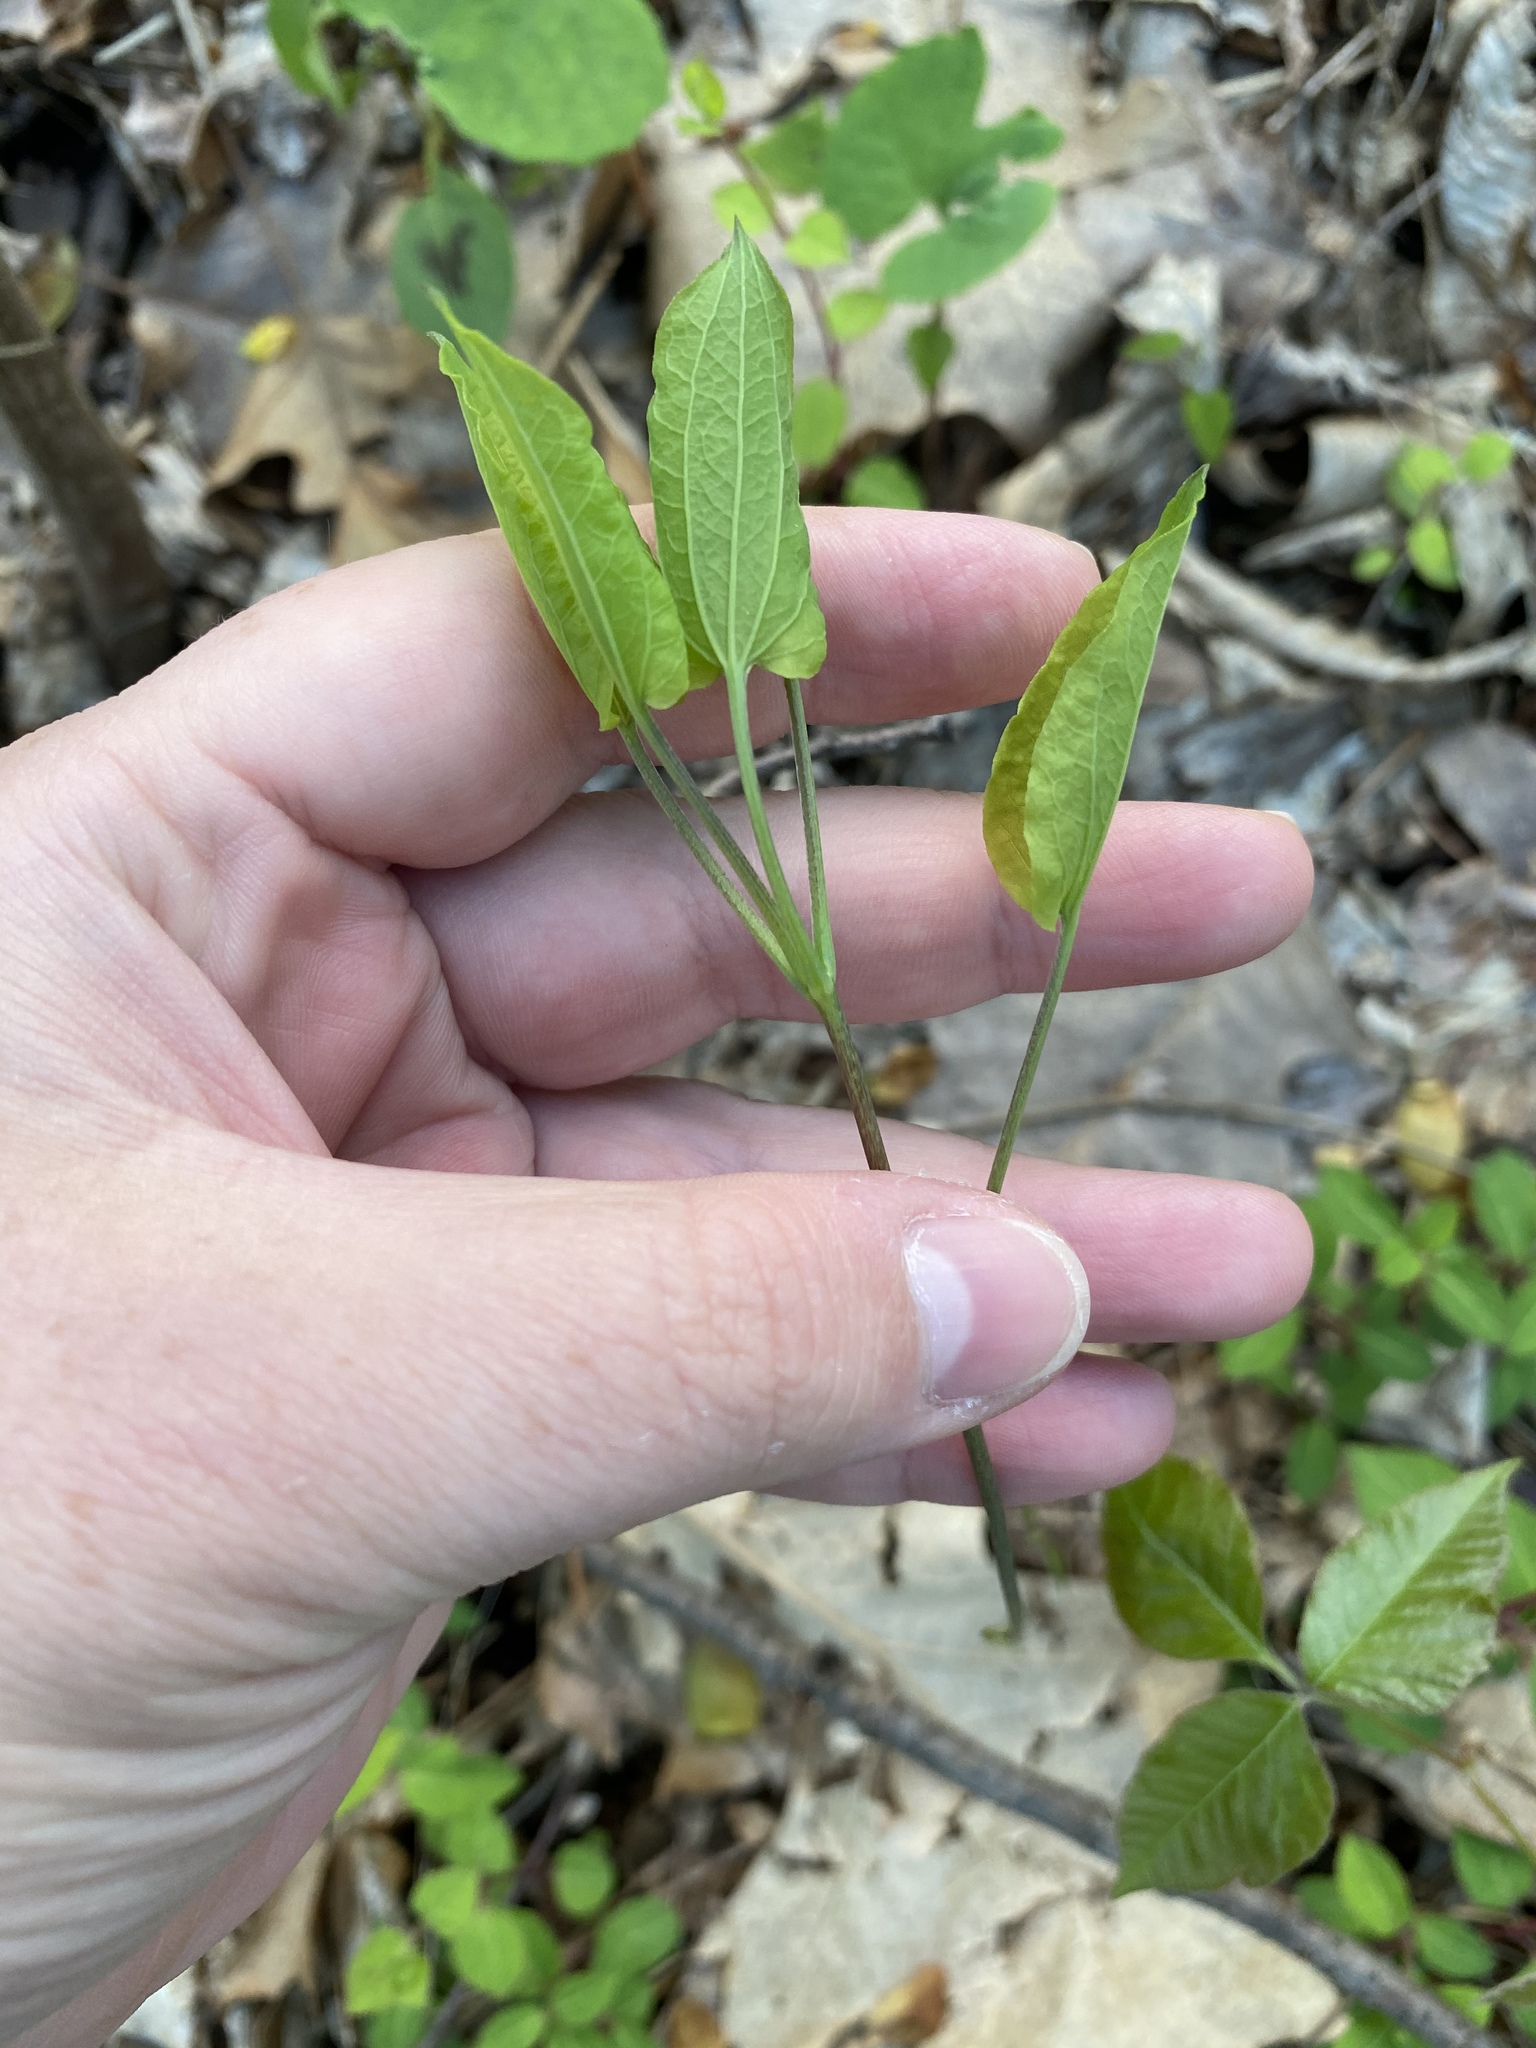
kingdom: Plantae
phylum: Tracheophyta
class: Liliopsida
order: Liliales
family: Smilacaceae
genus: Smilax
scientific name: Smilax herbacea
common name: Jacob's-ladder
